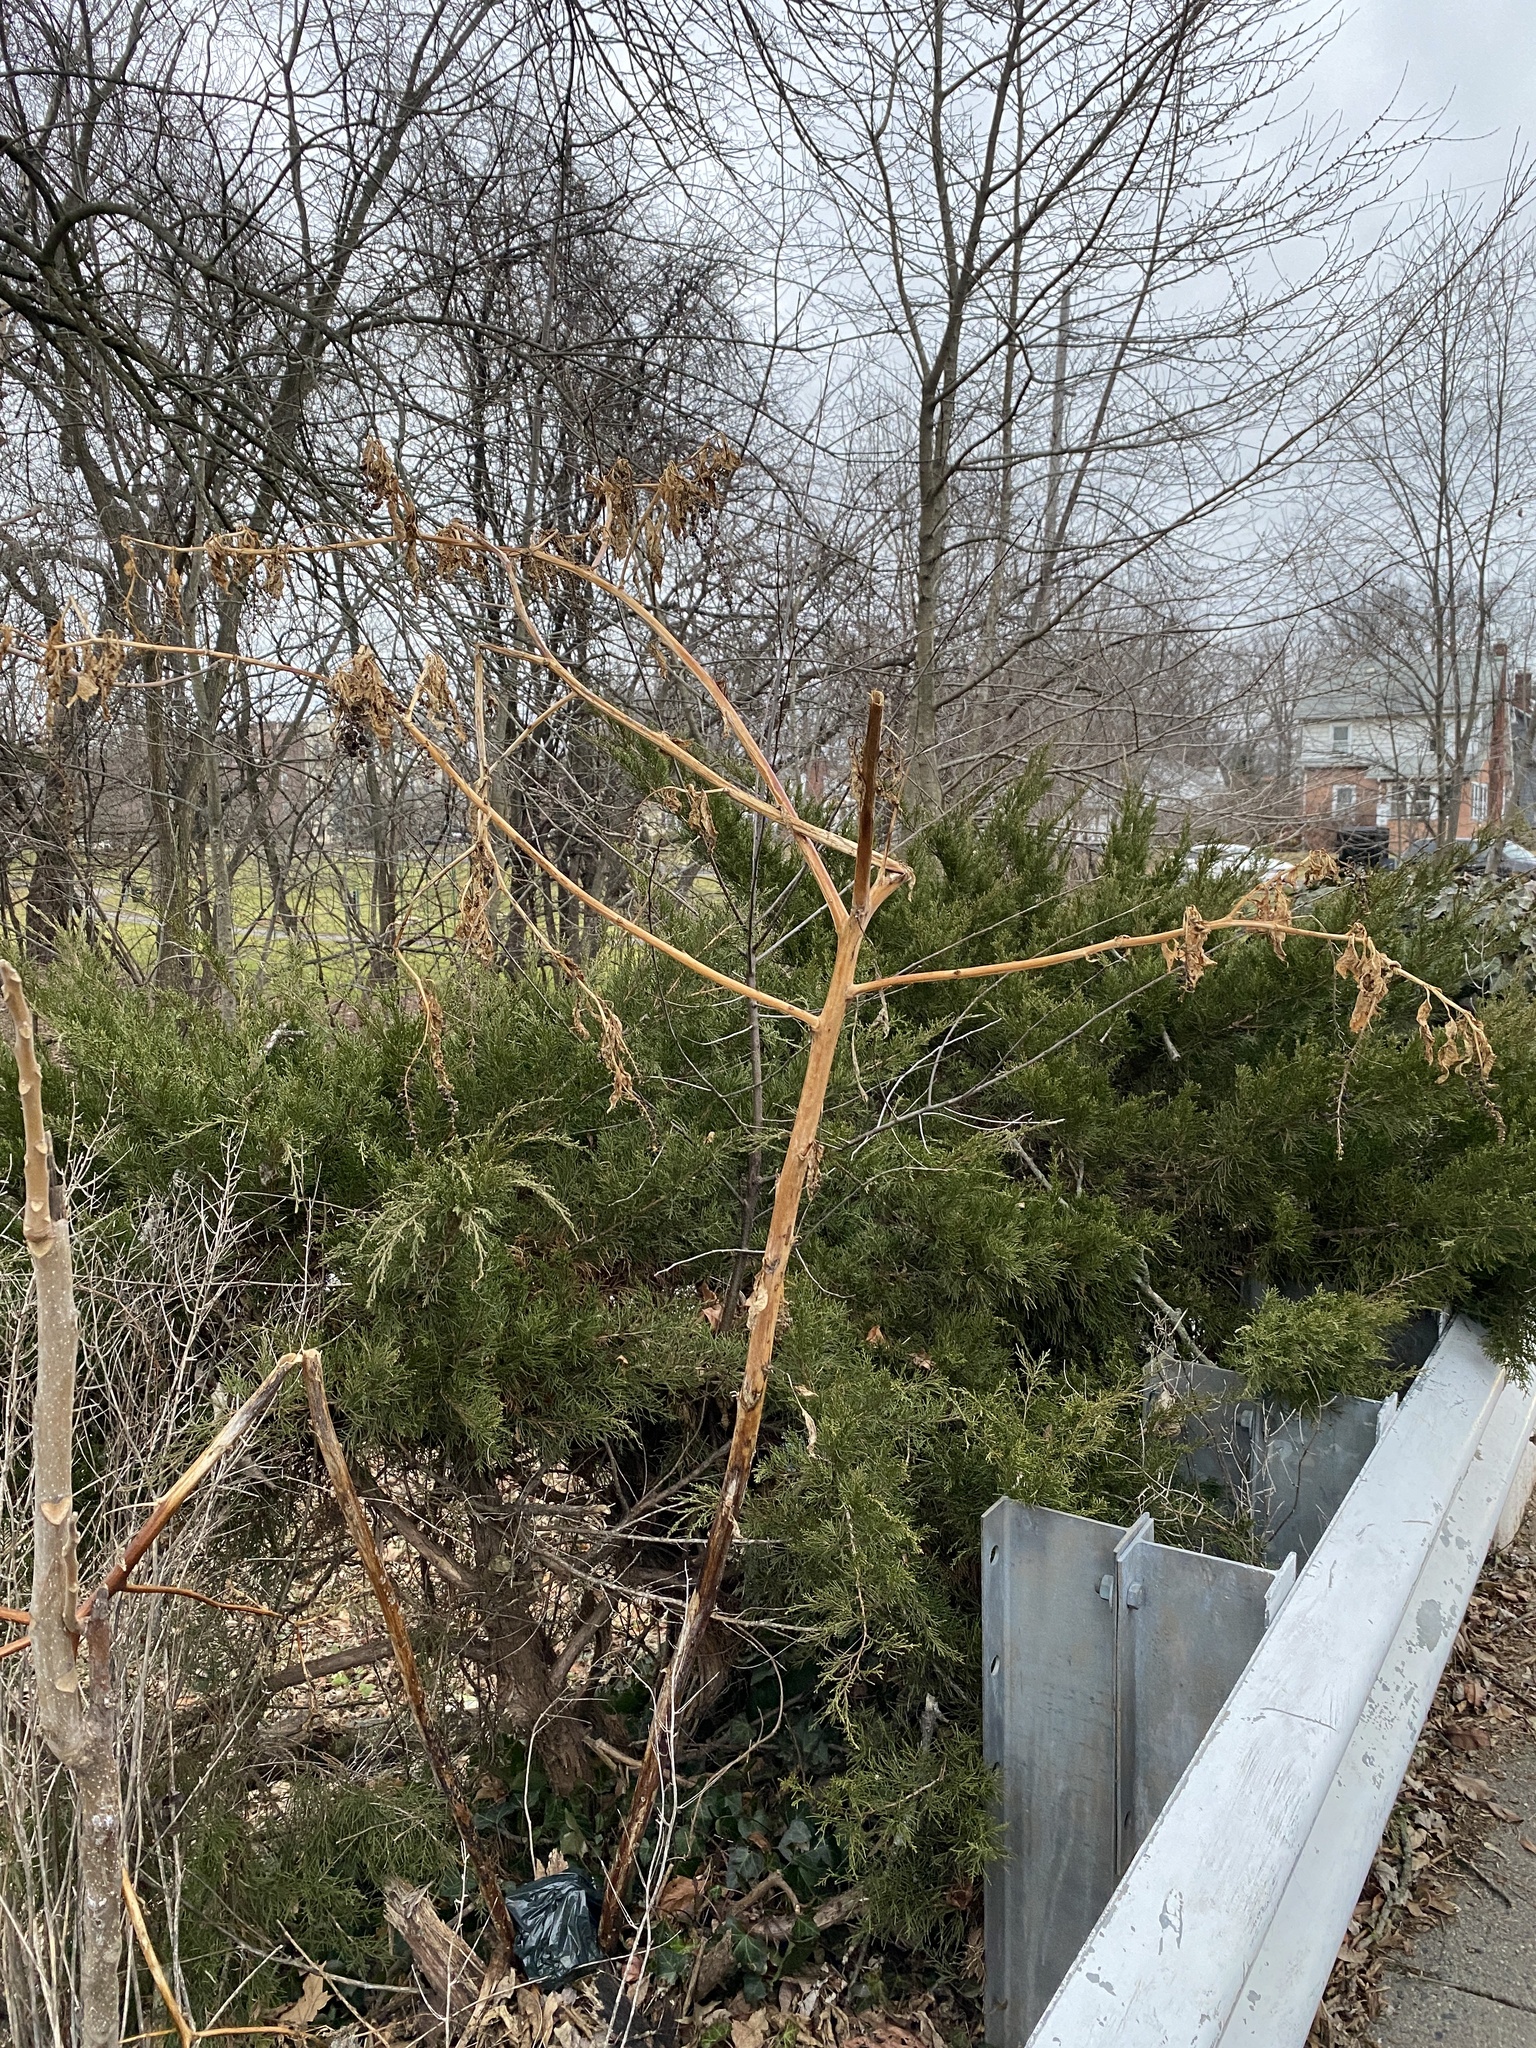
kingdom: Plantae
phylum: Tracheophyta
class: Magnoliopsida
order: Caryophyllales
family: Phytolaccaceae
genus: Phytolacca
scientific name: Phytolacca americana
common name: American pokeweed
